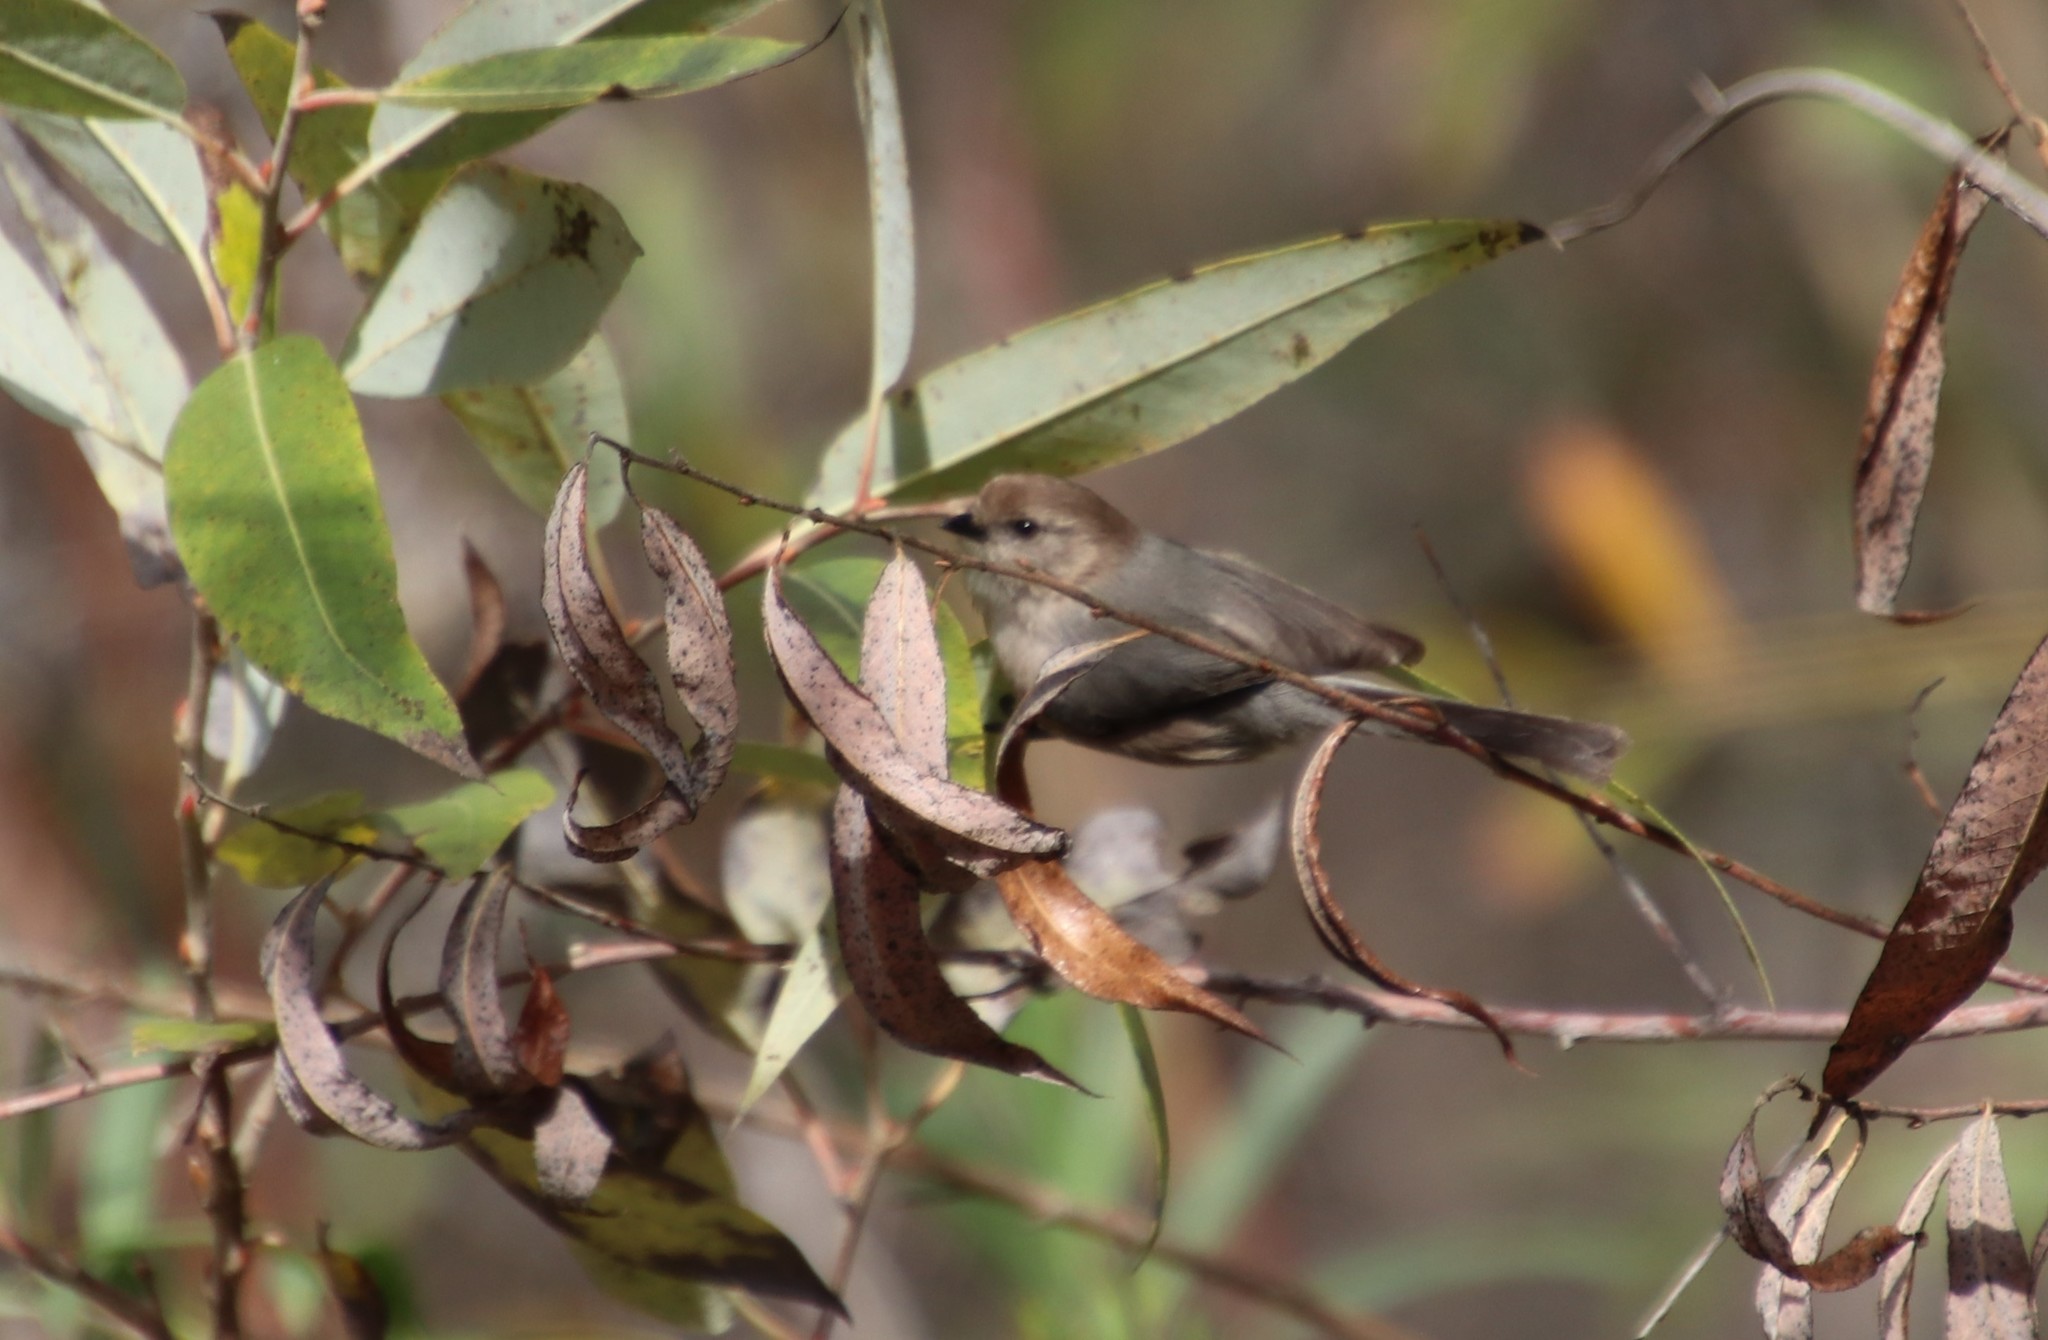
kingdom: Animalia
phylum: Chordata
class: Aves
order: Passeriformes
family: Aegithalidae
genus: Psaltriparus
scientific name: Psaltriparus minimus
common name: American bushtit
